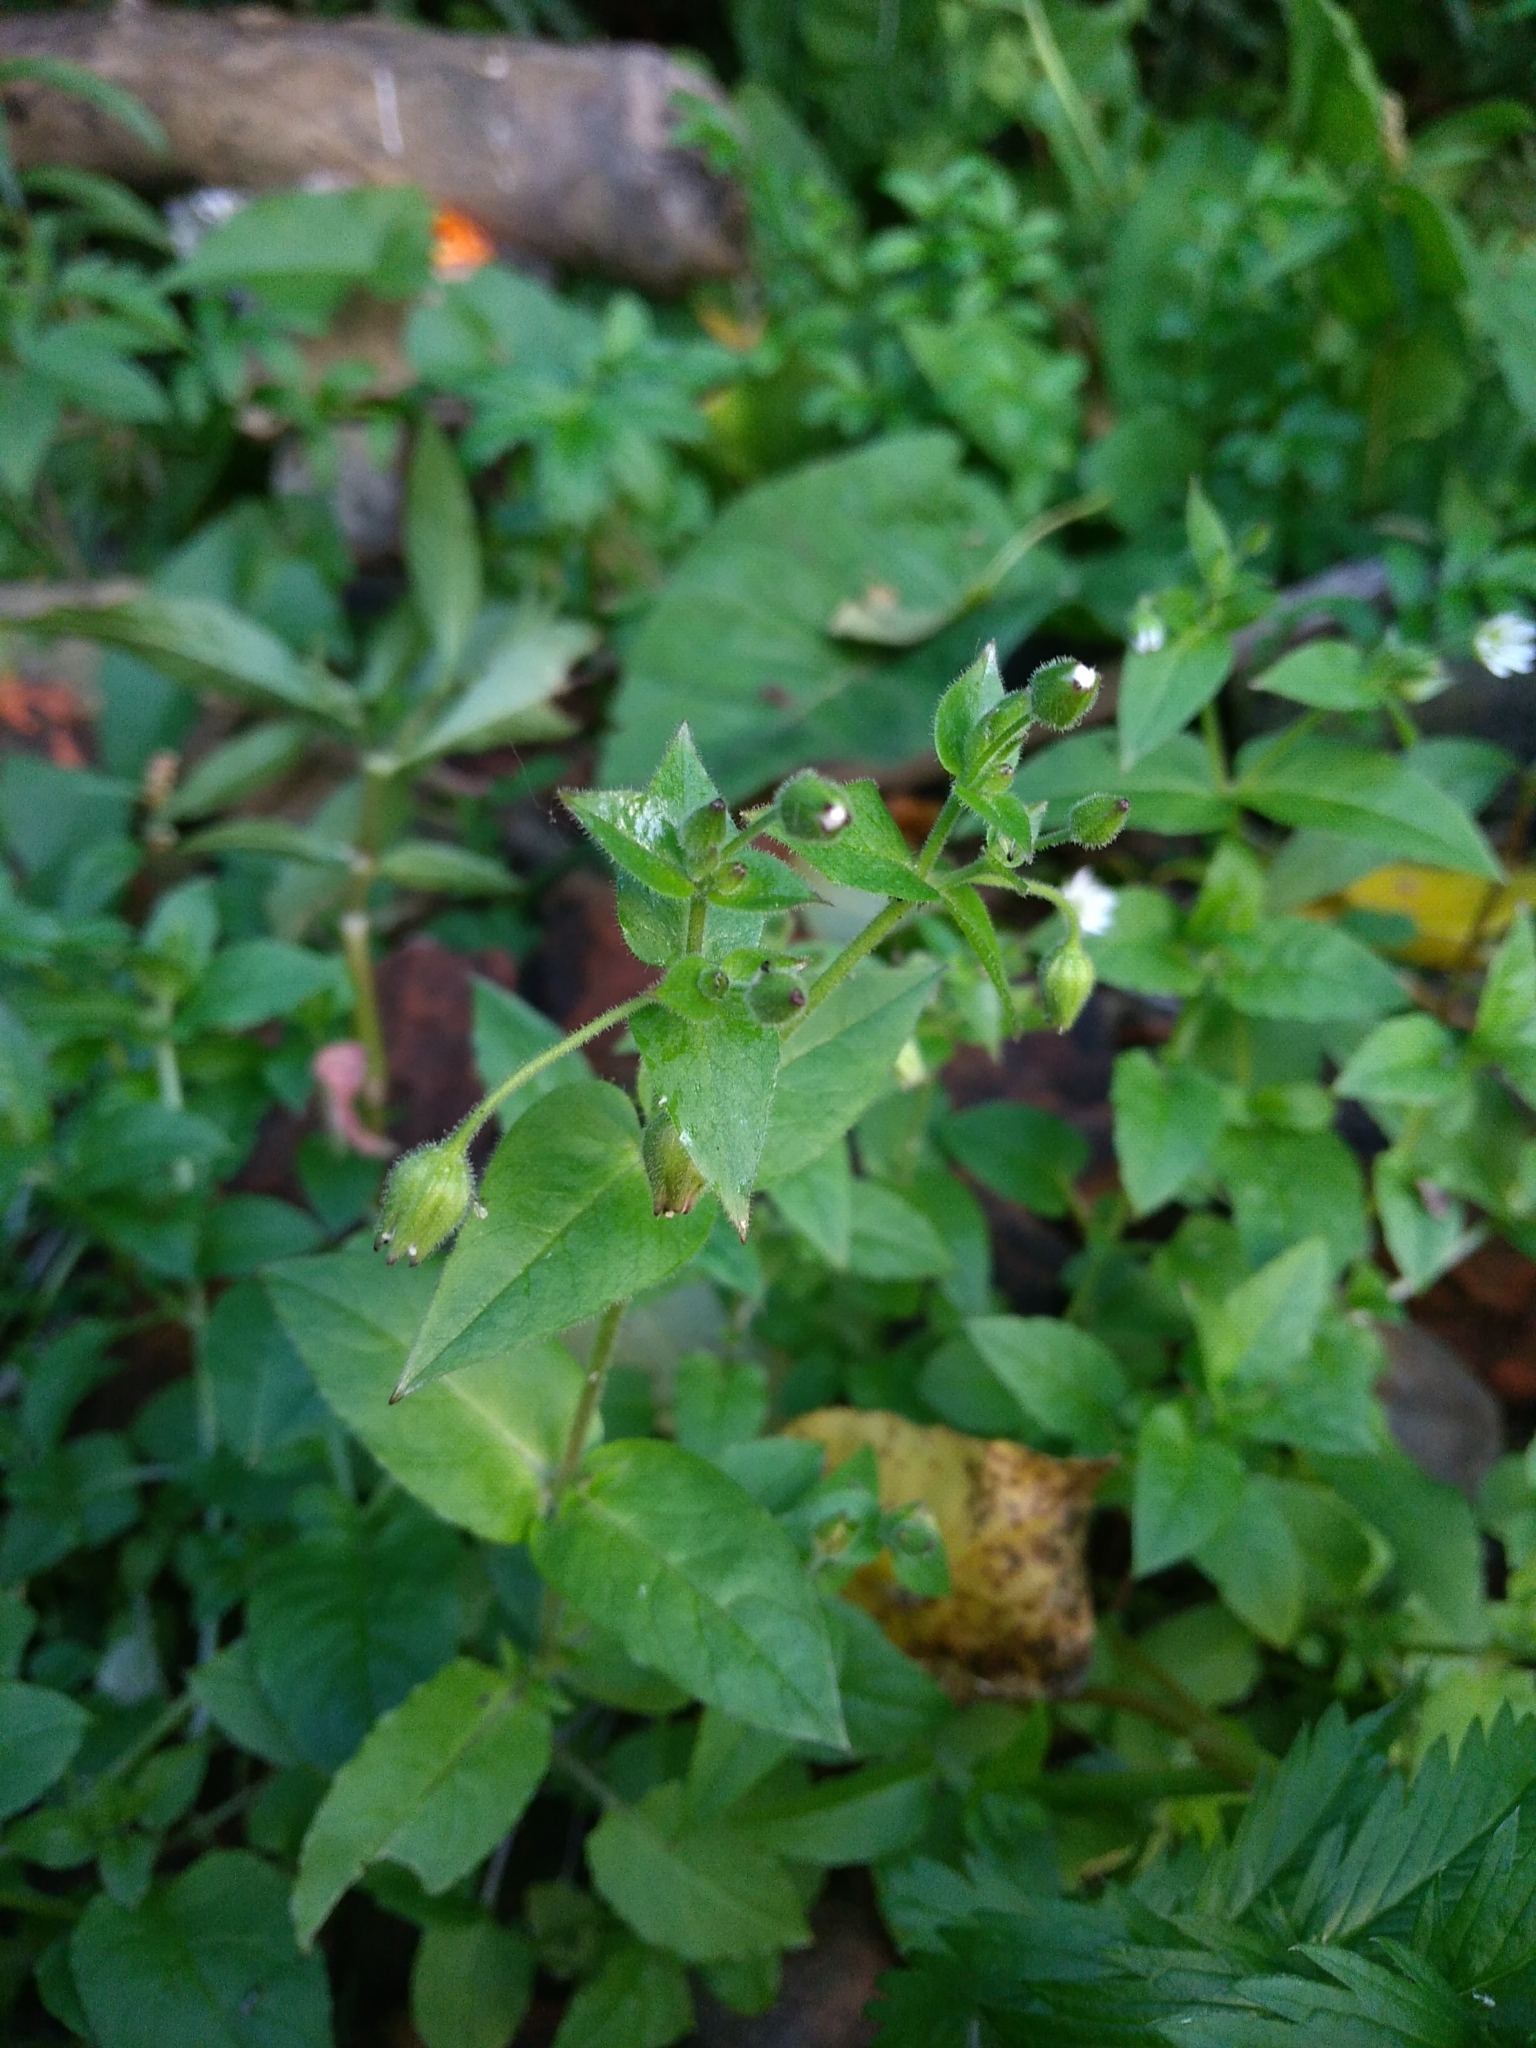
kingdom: Plantae
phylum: Tracheophyta
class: Magnoliopsida
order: Caryophyllales
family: Caryophyllaceae
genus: Stellaria
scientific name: Stellaria aquatica
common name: Water chickweed
